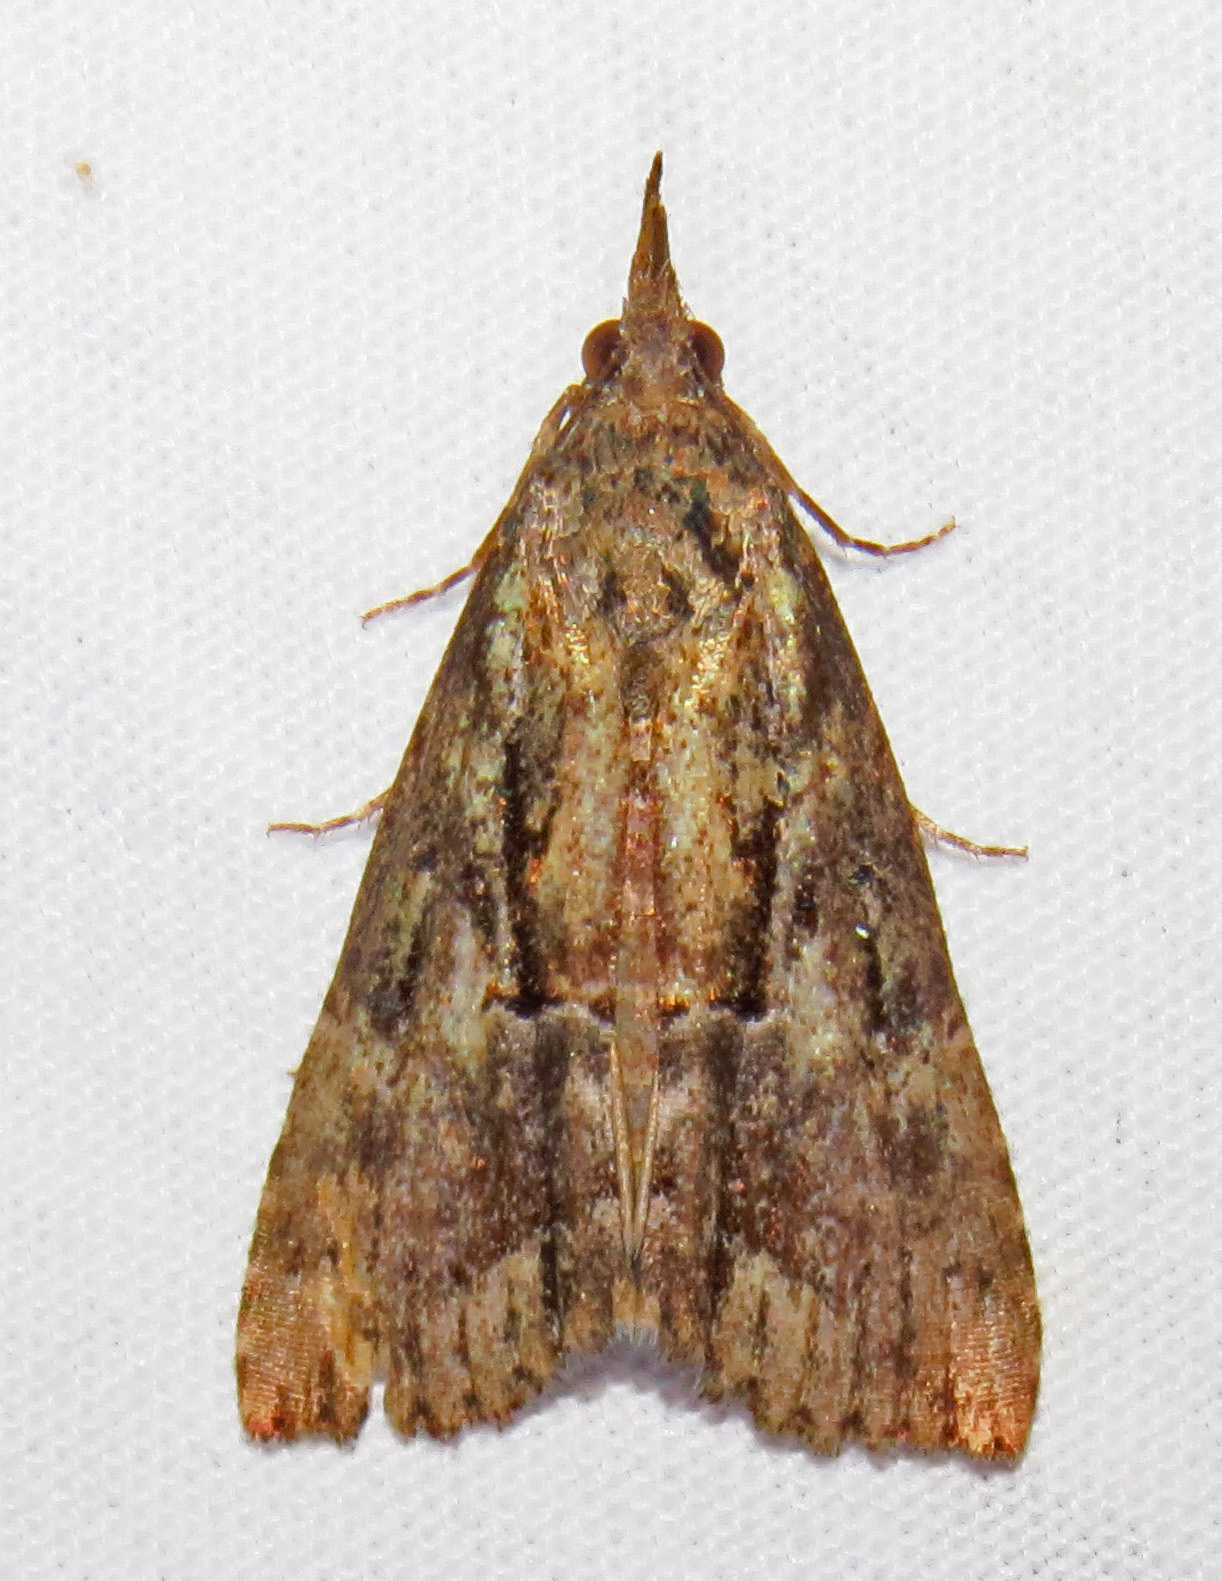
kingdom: Animalia
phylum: Arthropoda
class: Insecta
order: Lepidoptera
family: Erebidae
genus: Hypena
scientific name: Hypena scabra
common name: Green cloverworm
